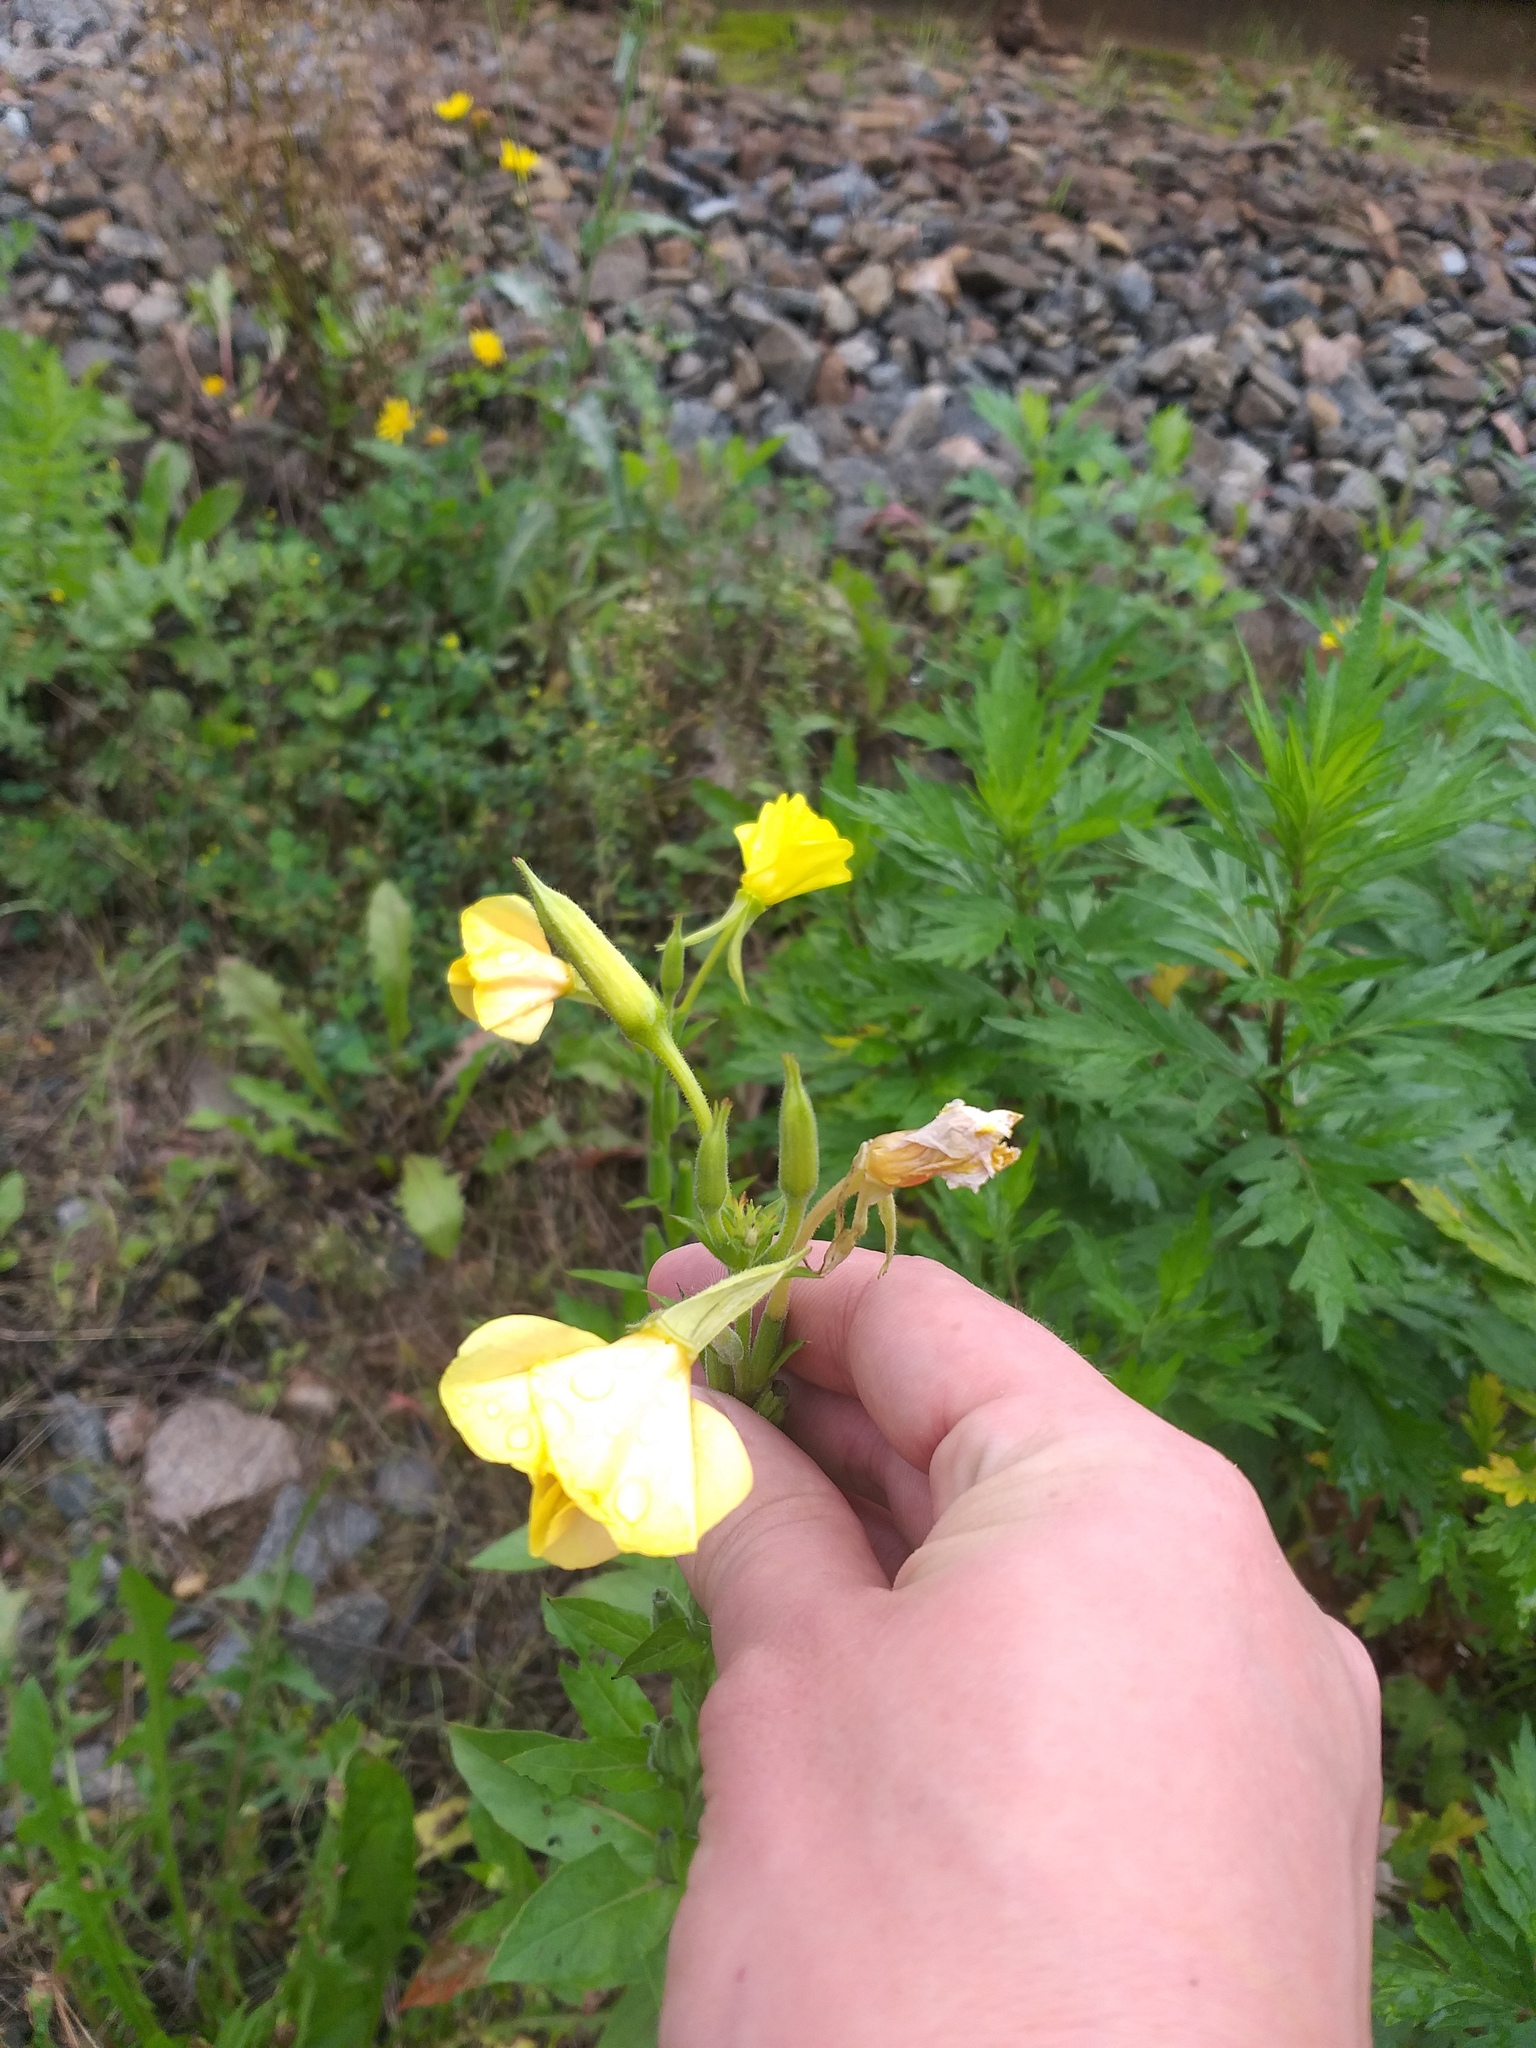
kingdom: Plantae
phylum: Tracheophyta
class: Magnoliopsida
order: Myrtales
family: Onagraceae
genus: Oenothera
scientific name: Oenothera biennis
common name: Common evening-primrose
